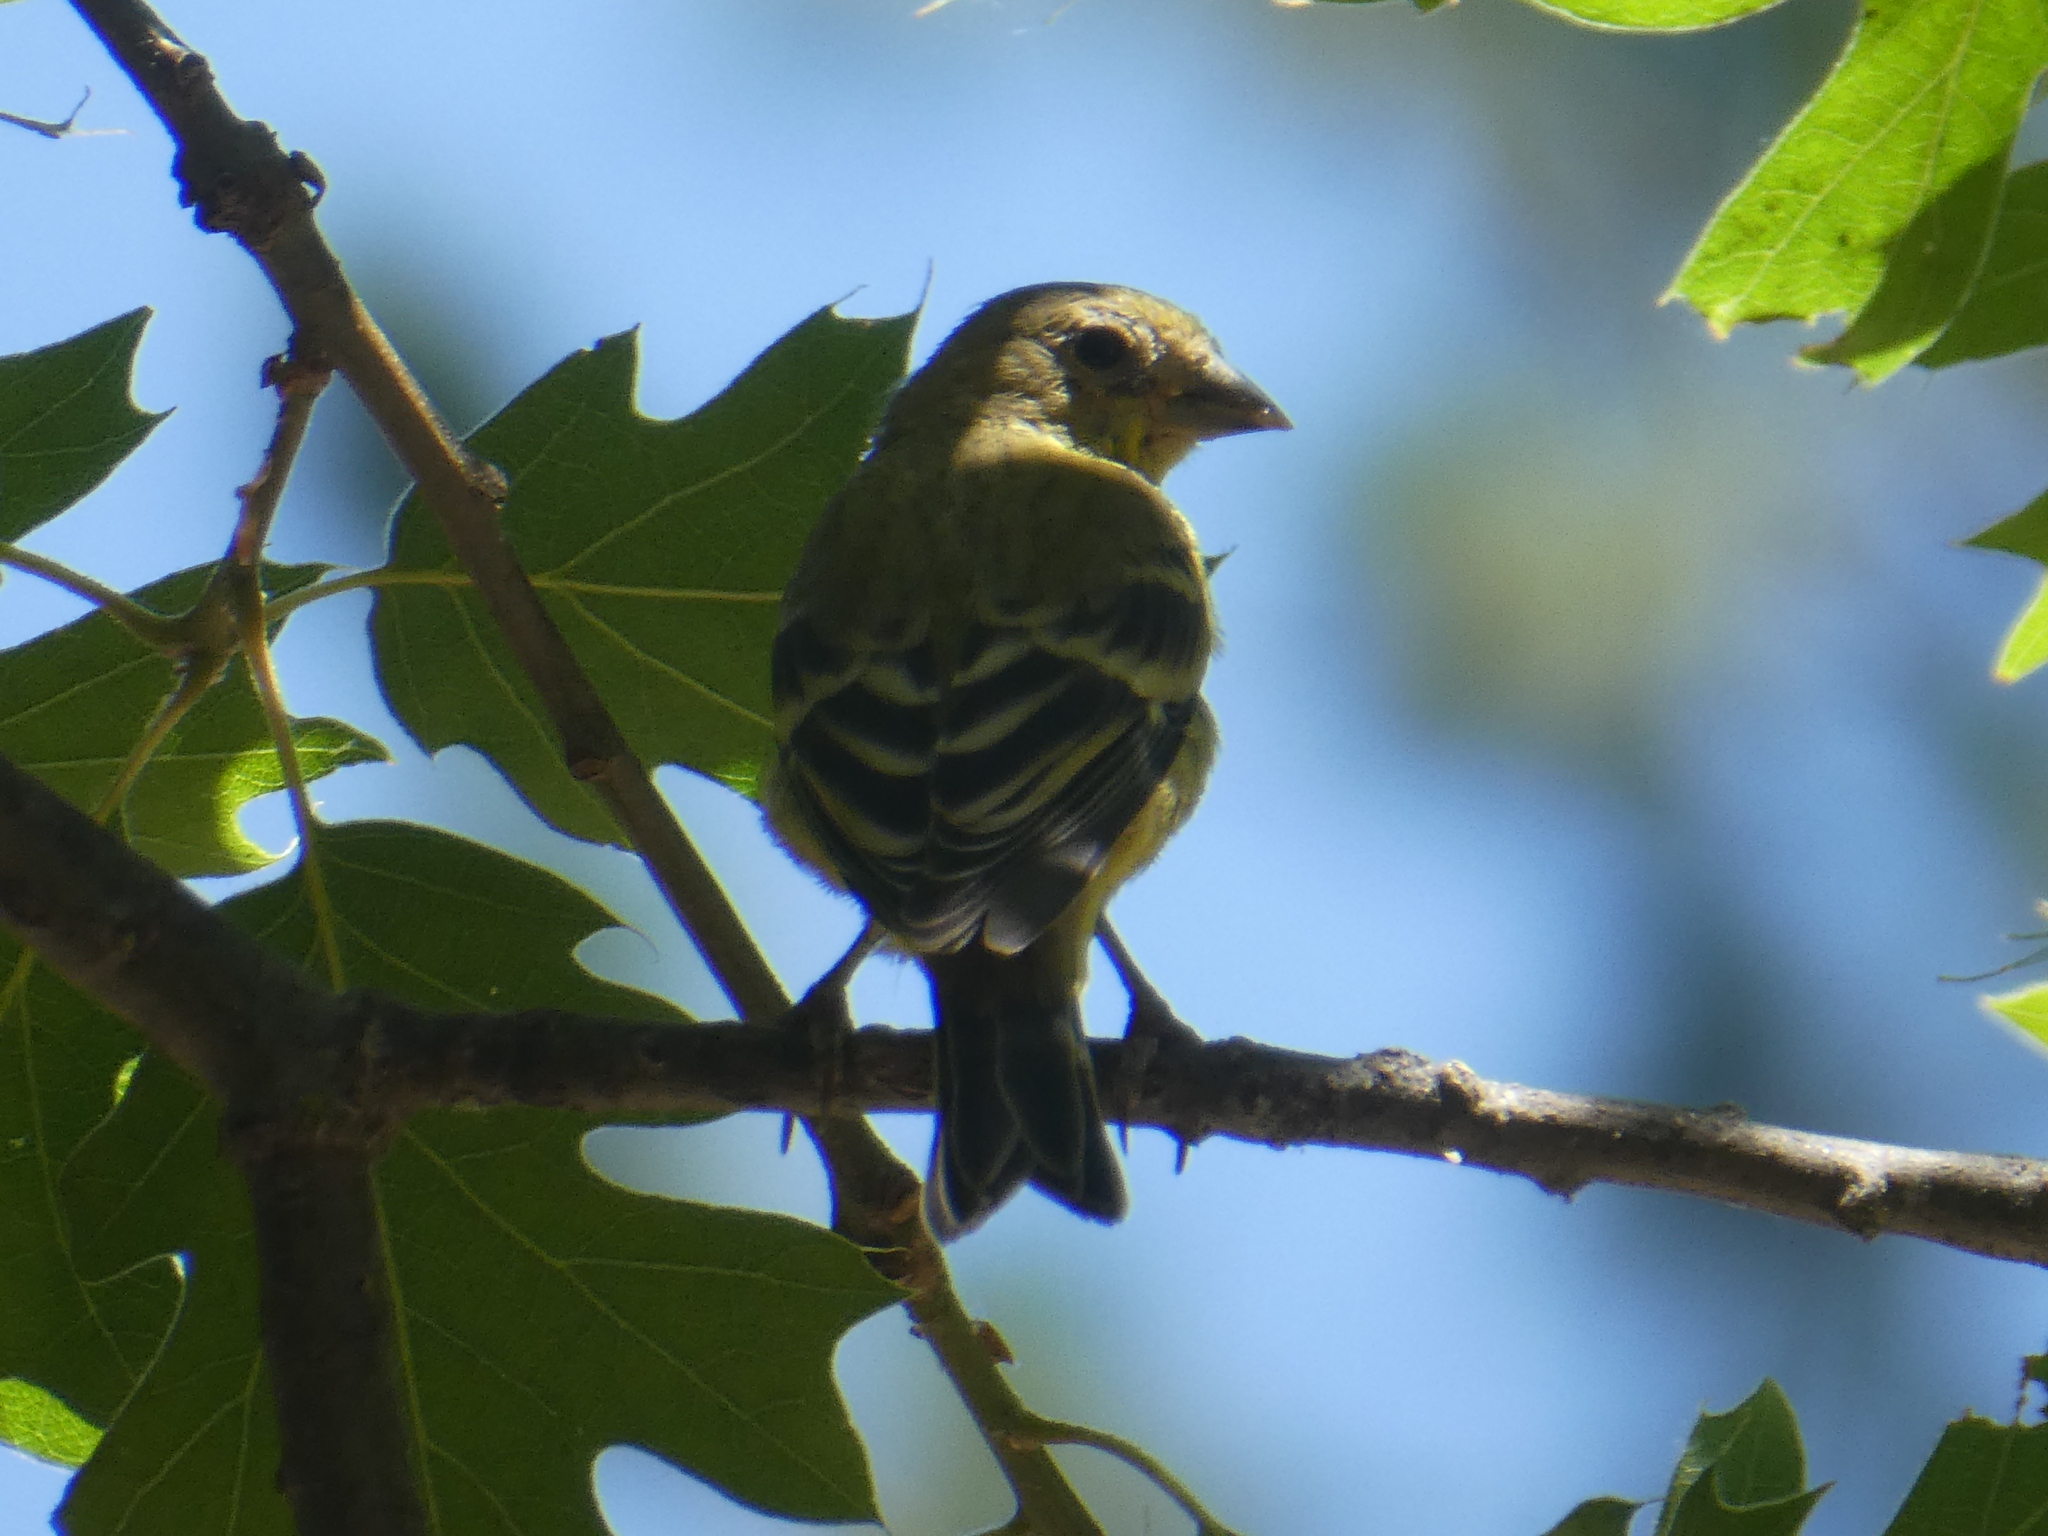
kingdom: Animalia
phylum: Chordata
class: Aves
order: Passeriformes
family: Fringillidae
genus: Spinus
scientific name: Spinus psaltria
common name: Lesser goldfinch
